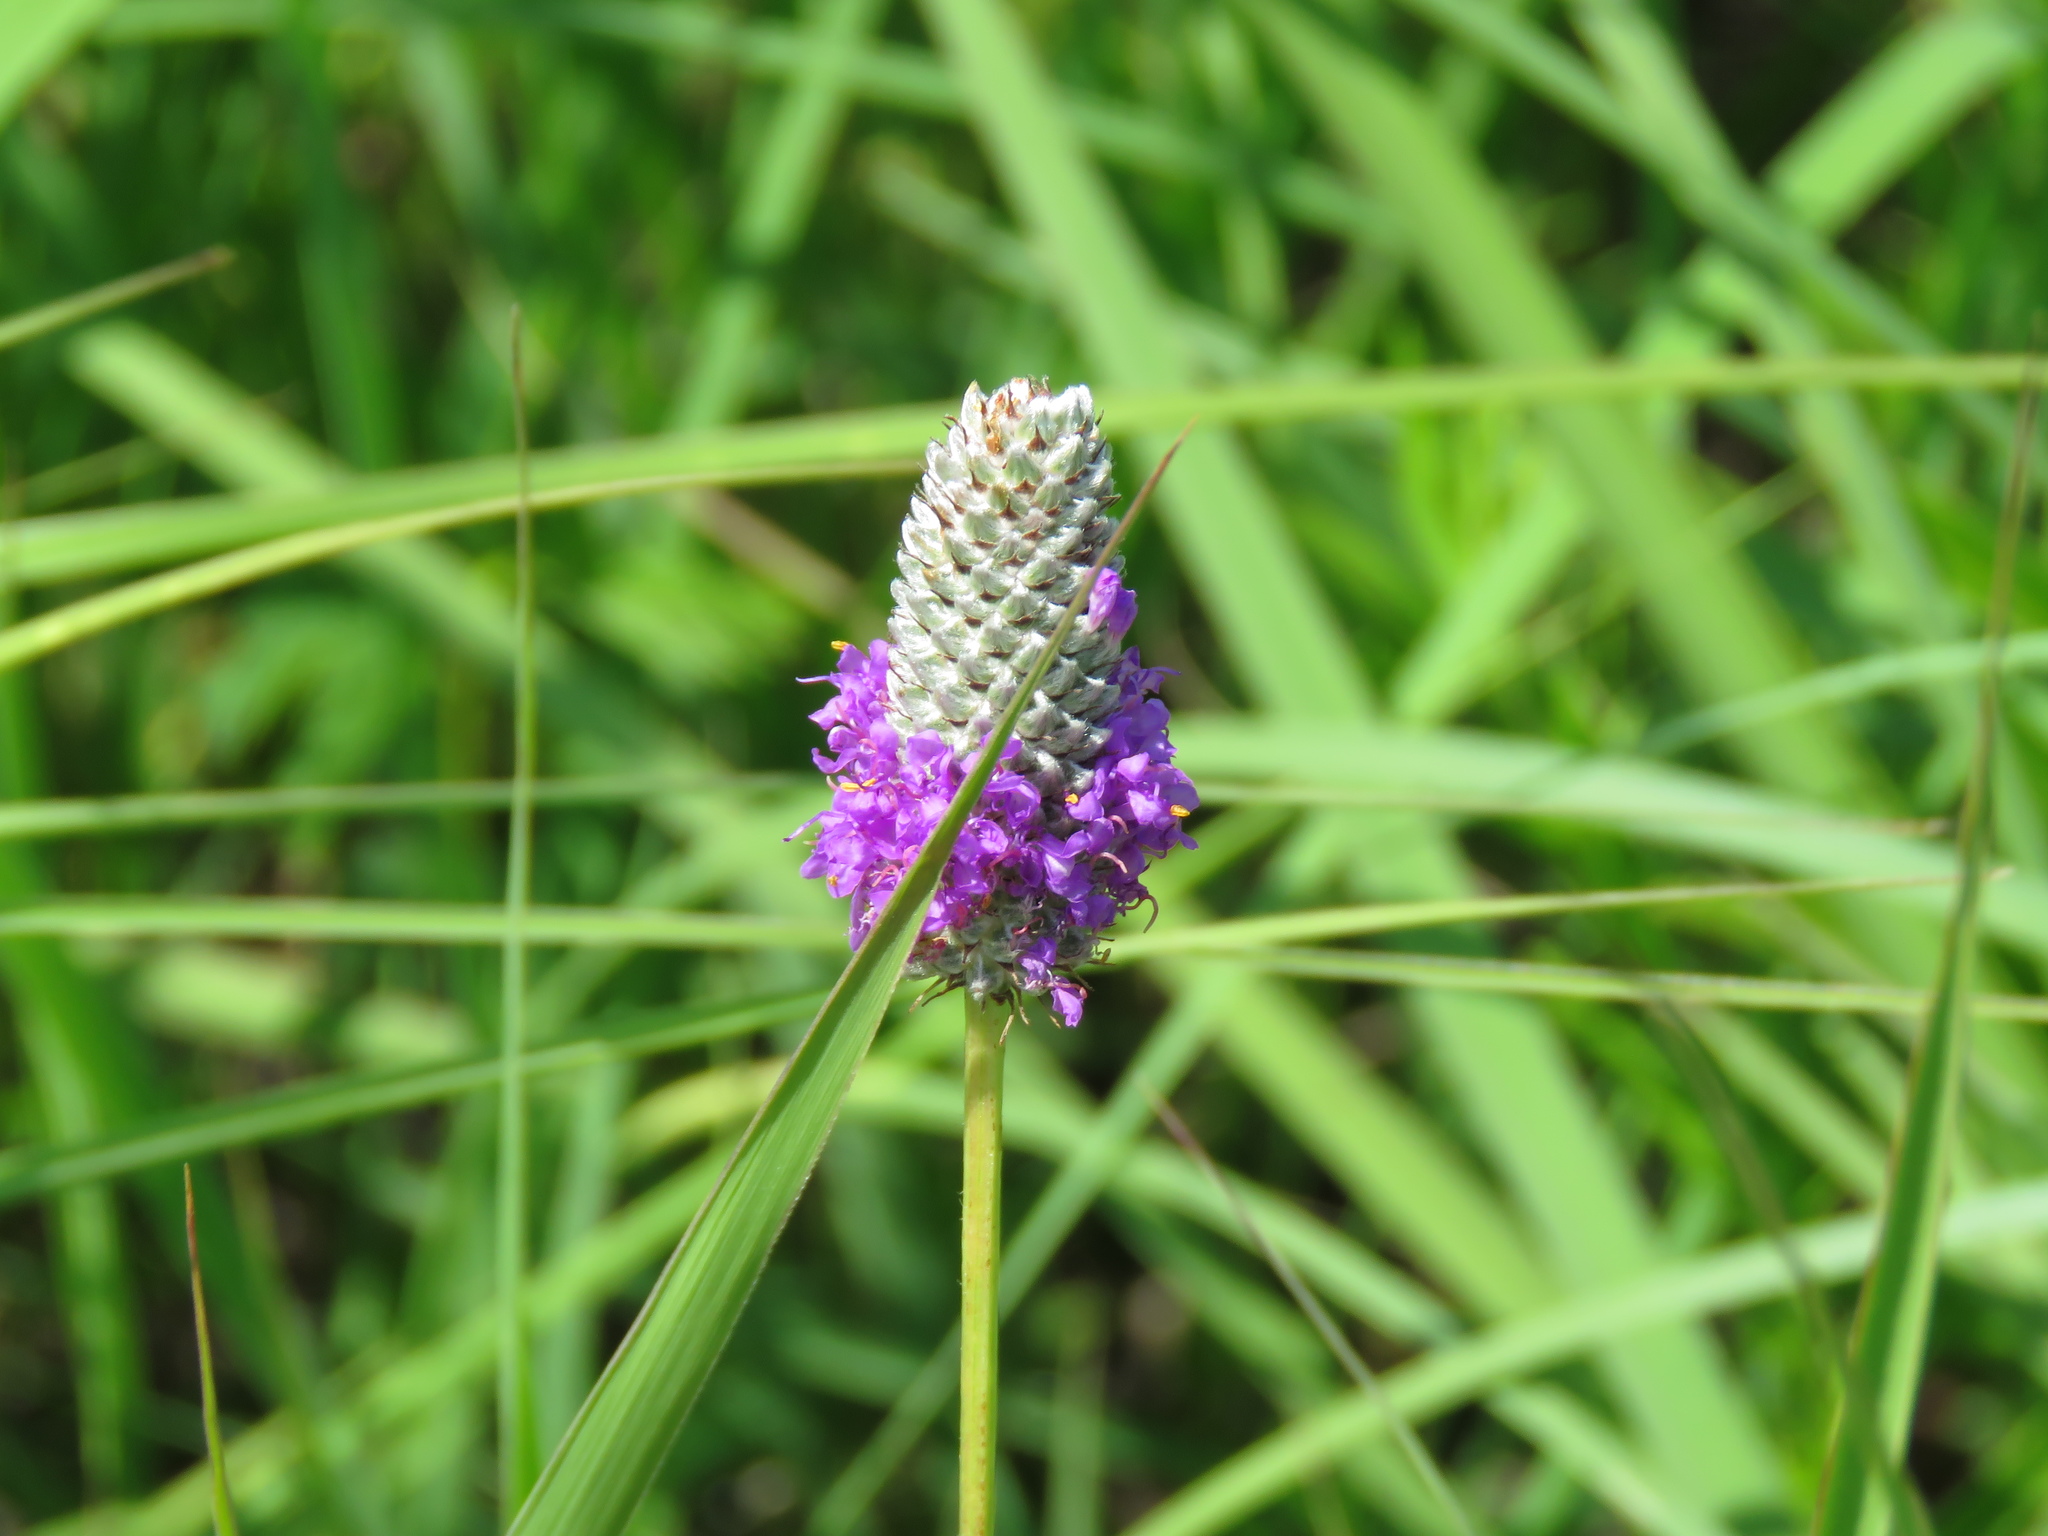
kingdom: Plantae
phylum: Tracheophyta
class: Magnoliopsida
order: Fabales
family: Fabaceae
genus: Dalea
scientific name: Dalea purpurea
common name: Purple prairie-clover
